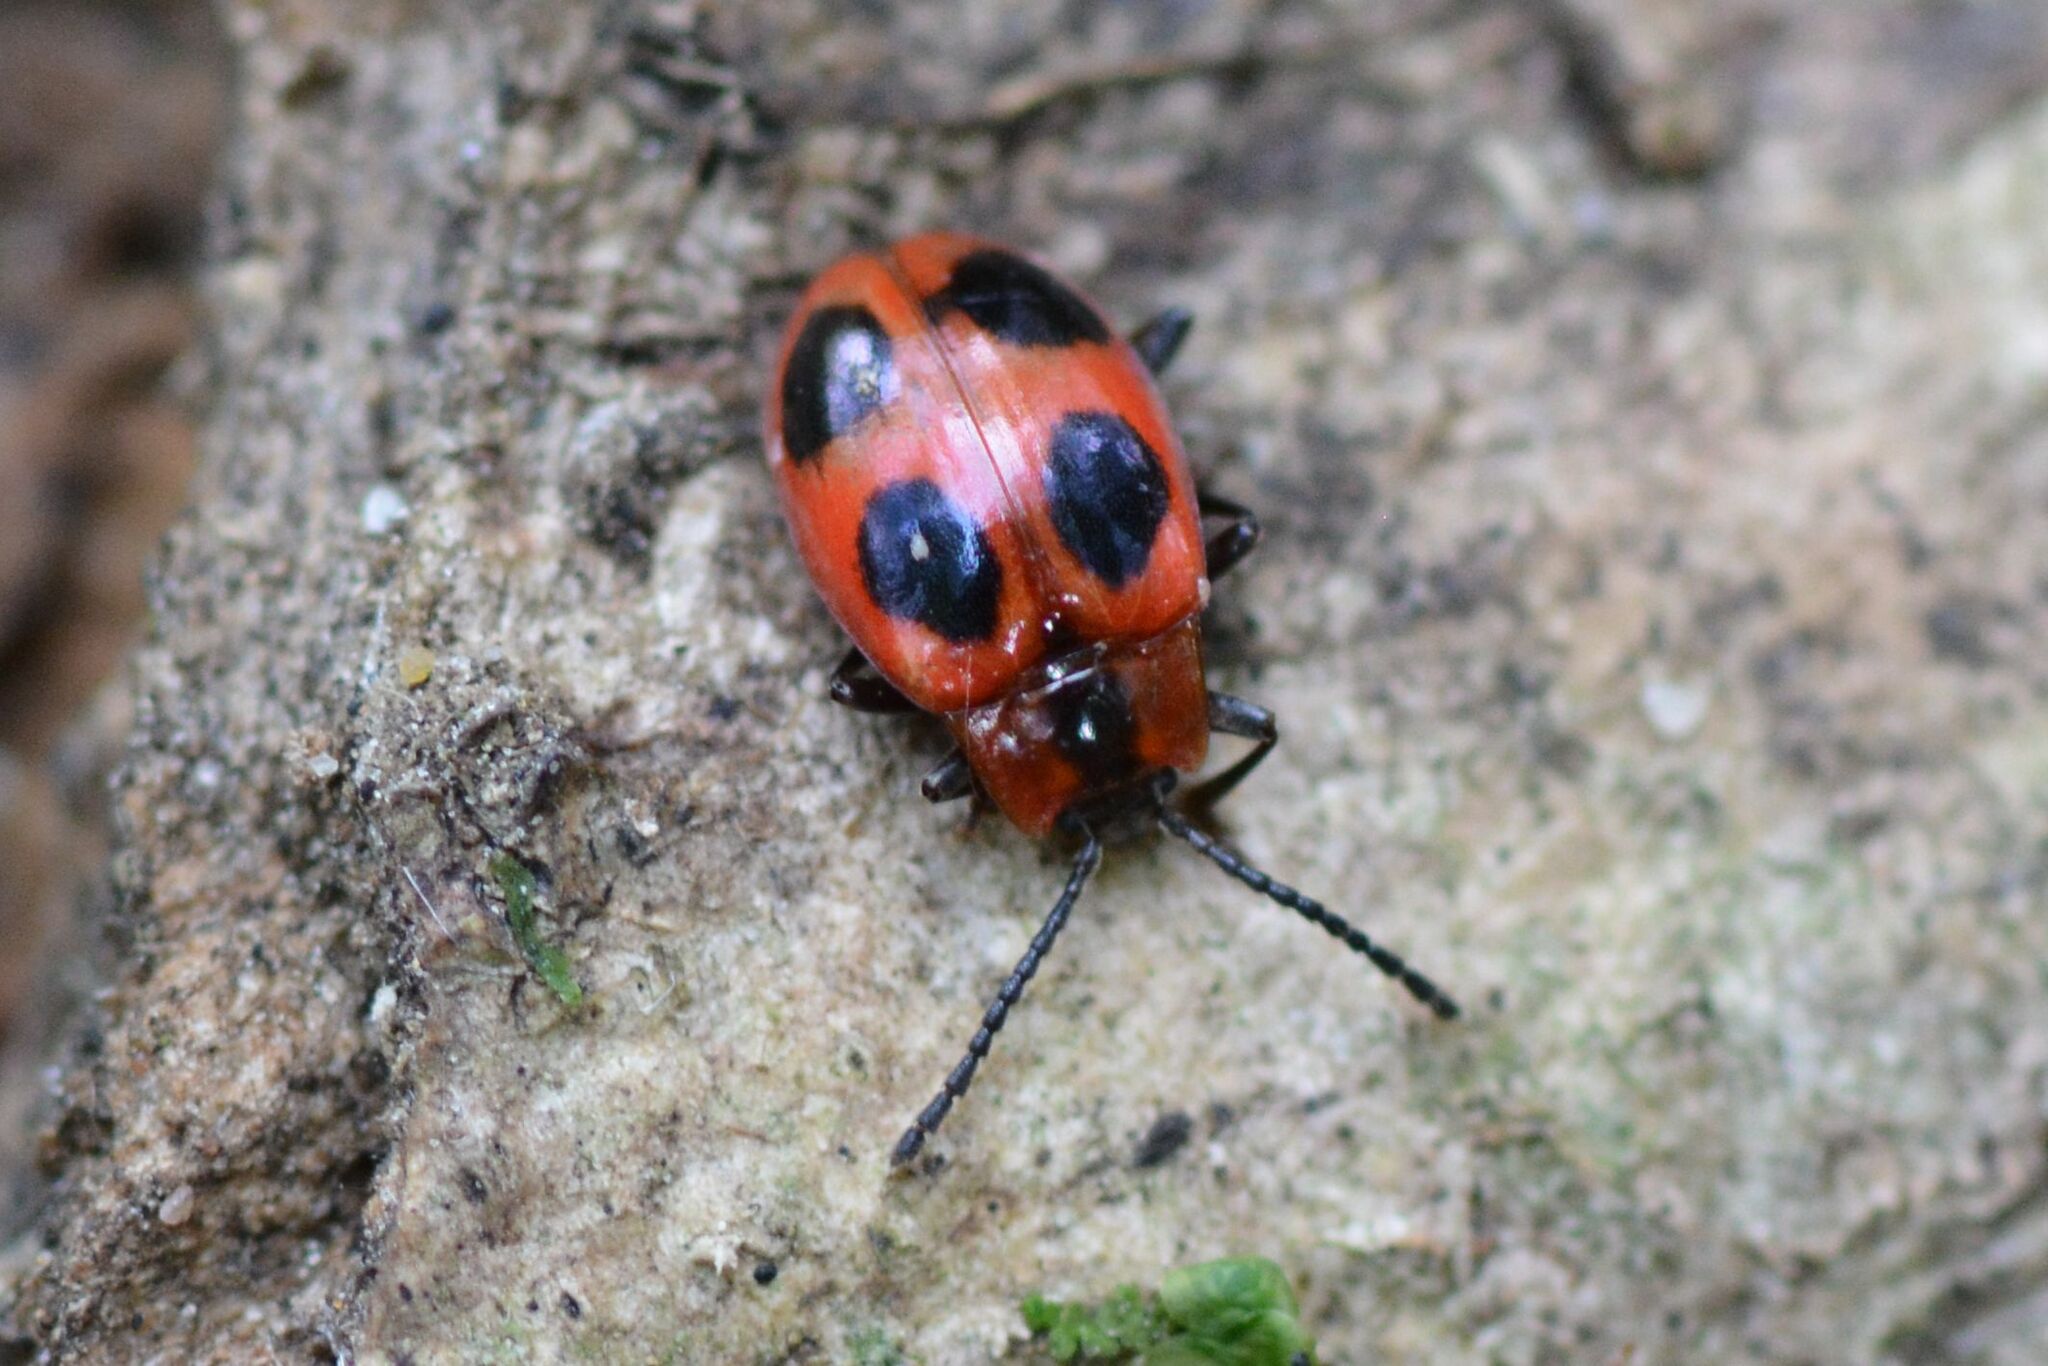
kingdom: Animalia
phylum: Arthropoda
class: Insecta
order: Coleoptera
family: Endomychidae
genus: Endomychus
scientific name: Endomychus coccineus
